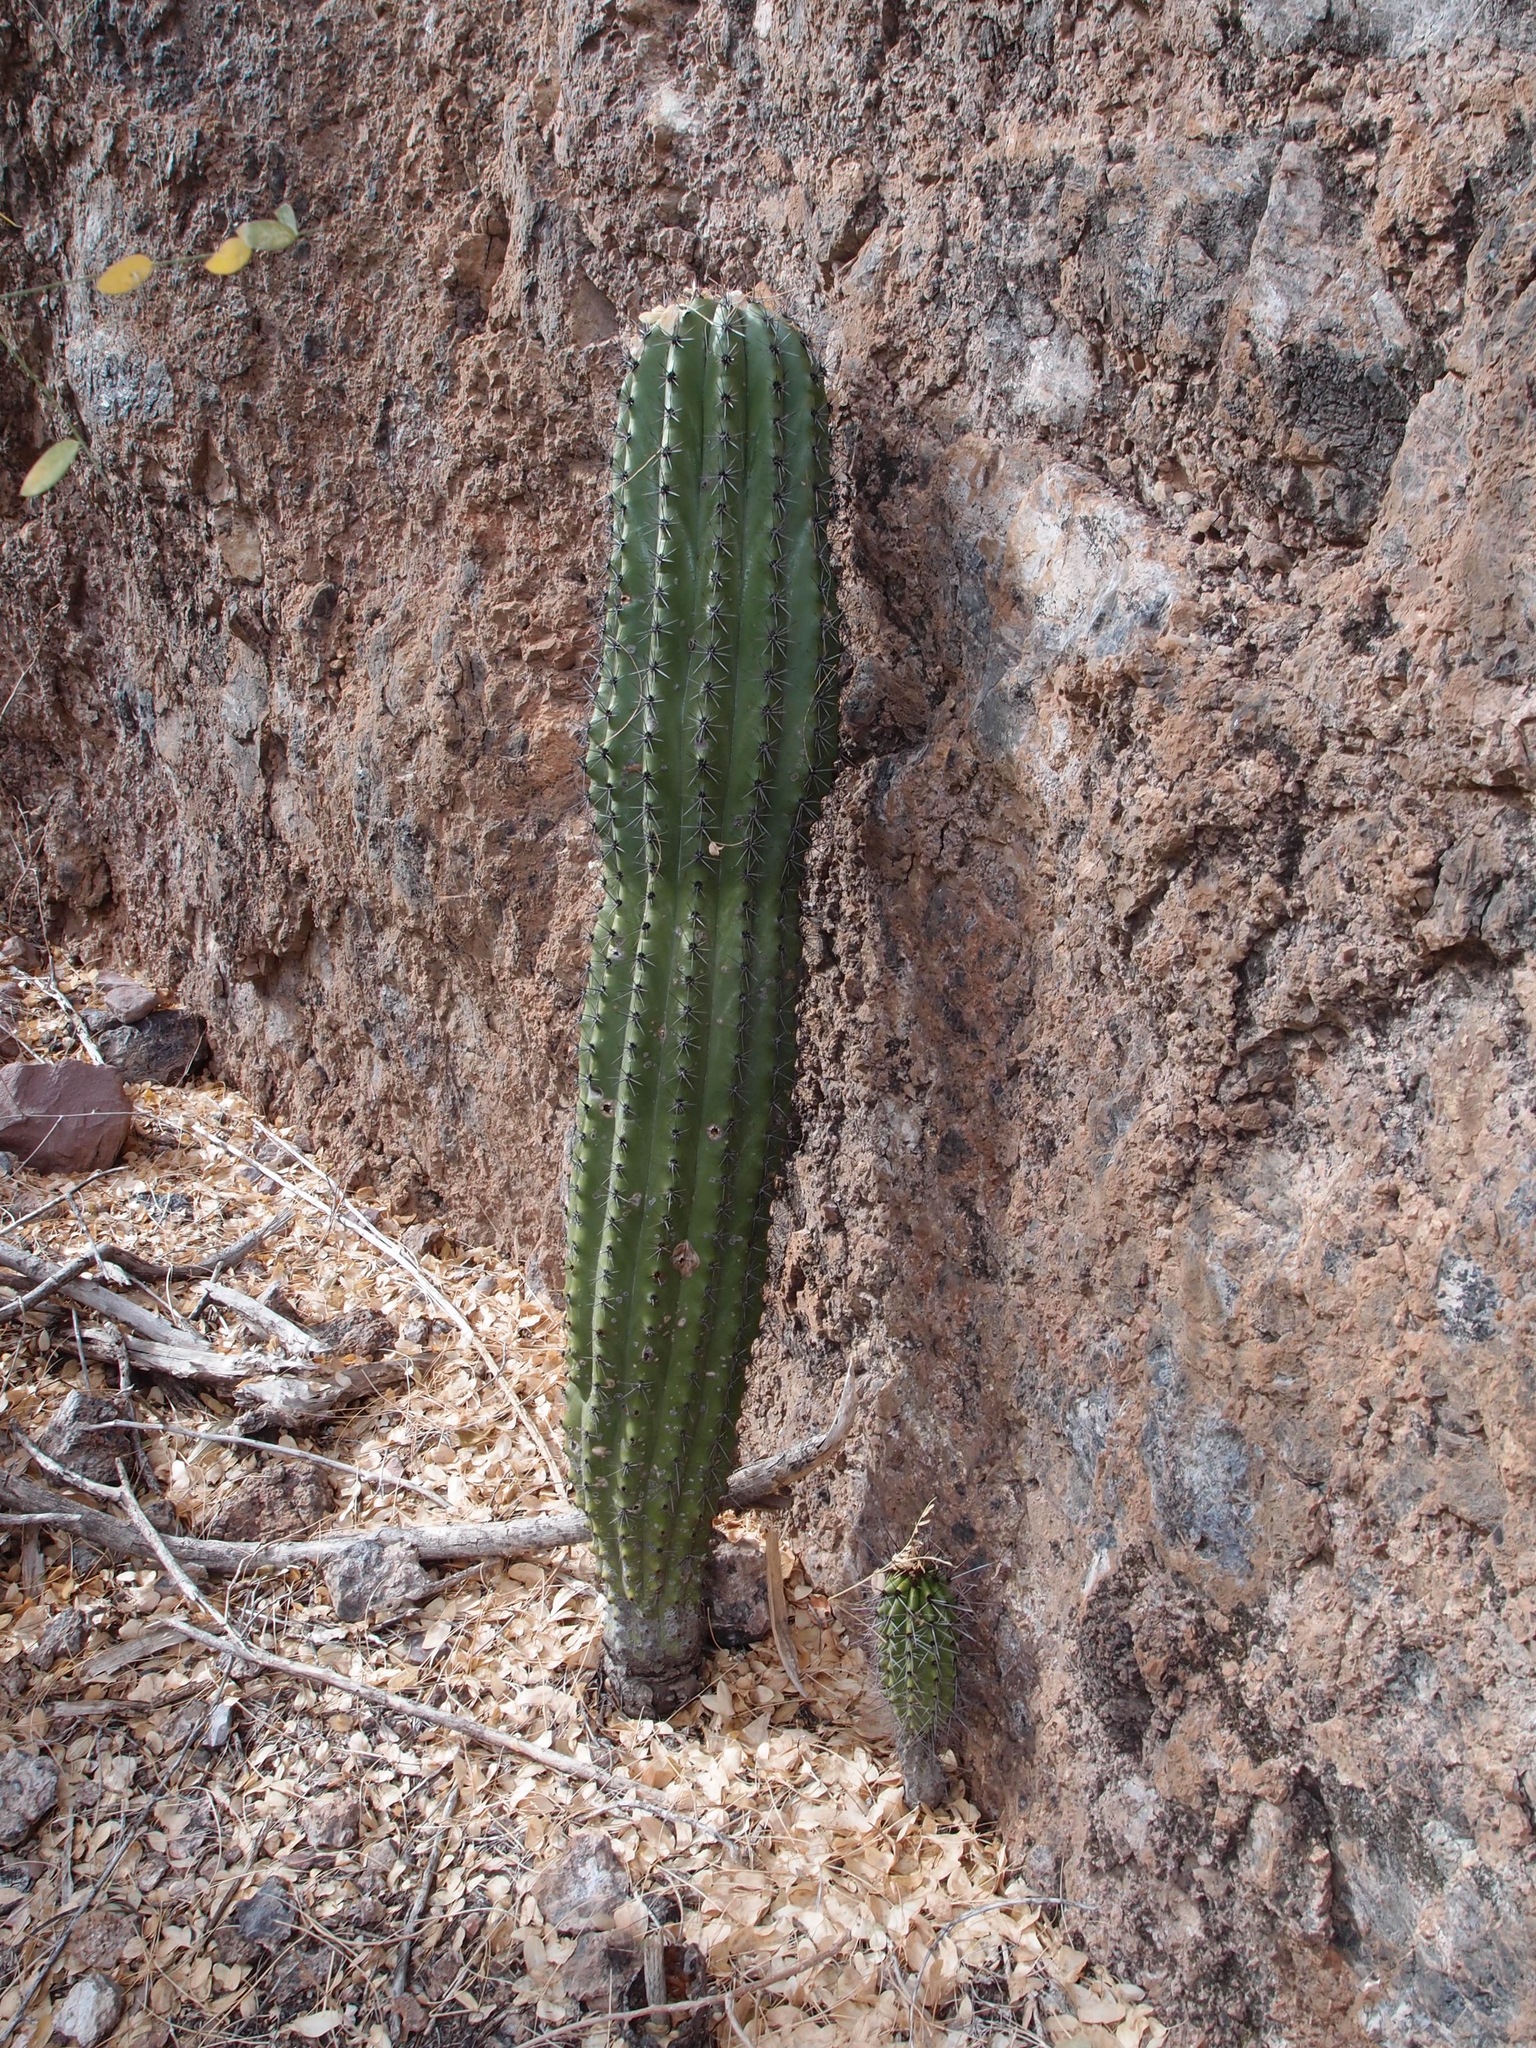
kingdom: Plantae
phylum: Tracheophyta
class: Magnoliopsida
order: Caryophyllales
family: Cactaceae
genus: Stenocereus
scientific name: Stenocereus thurberi
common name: Organ pipe cactus
